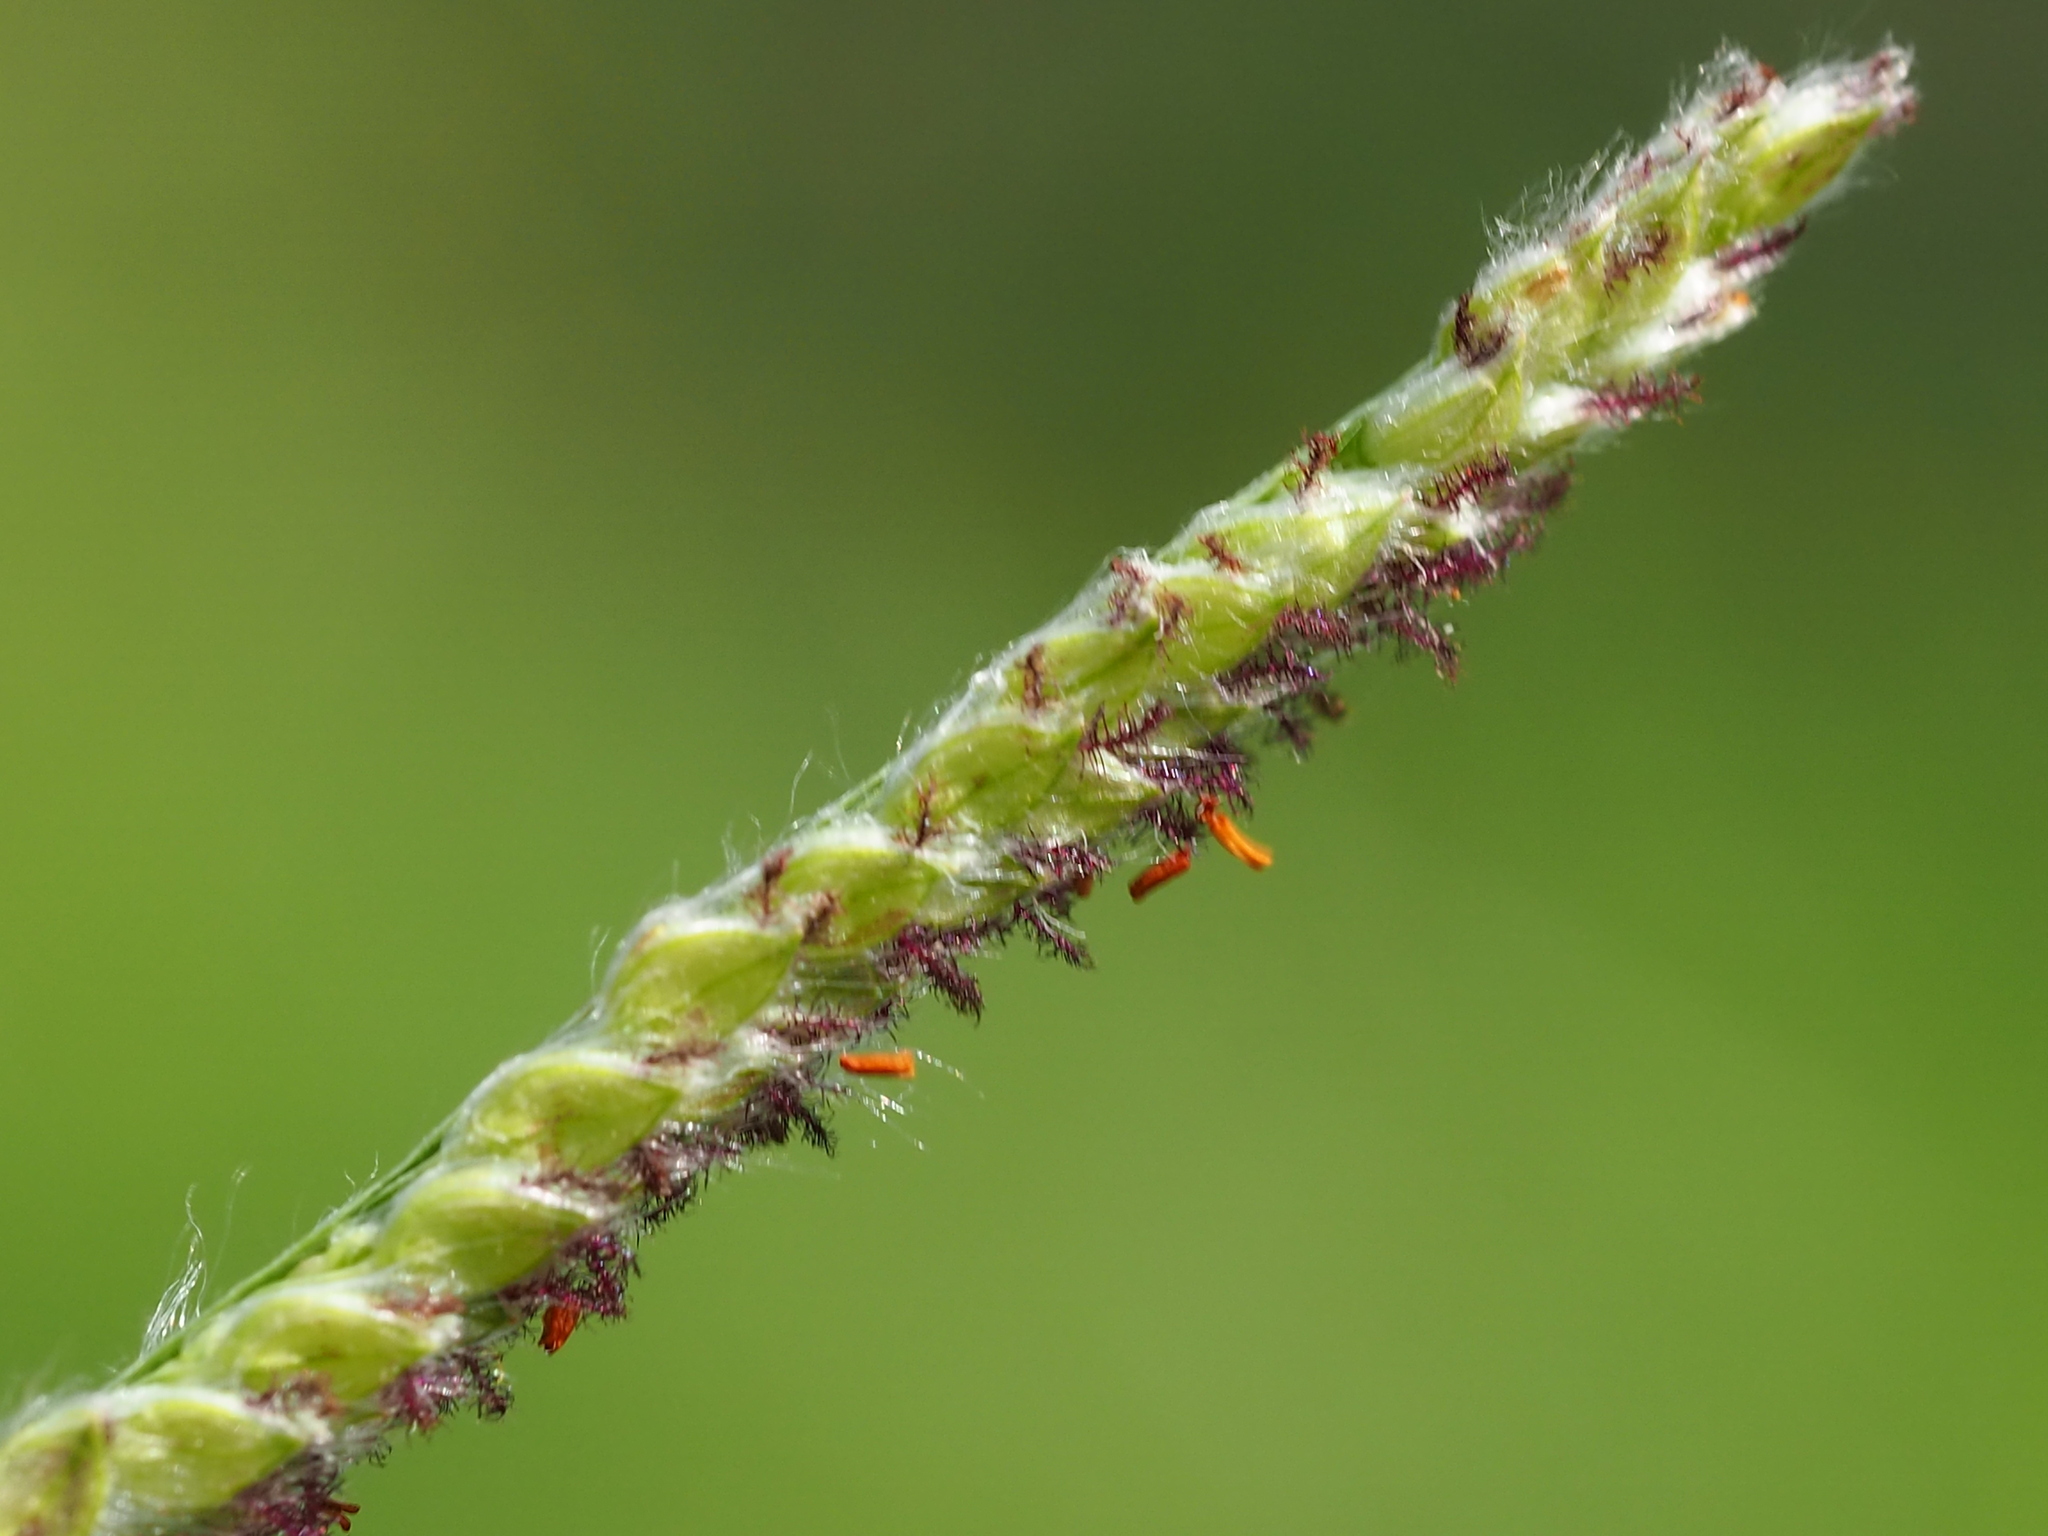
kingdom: Plantae
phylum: Tracheophyta
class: Liliopsida
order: Poales
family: Poaceae
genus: Paspalum
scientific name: Paspalum urvillei
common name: Vasey's grass
